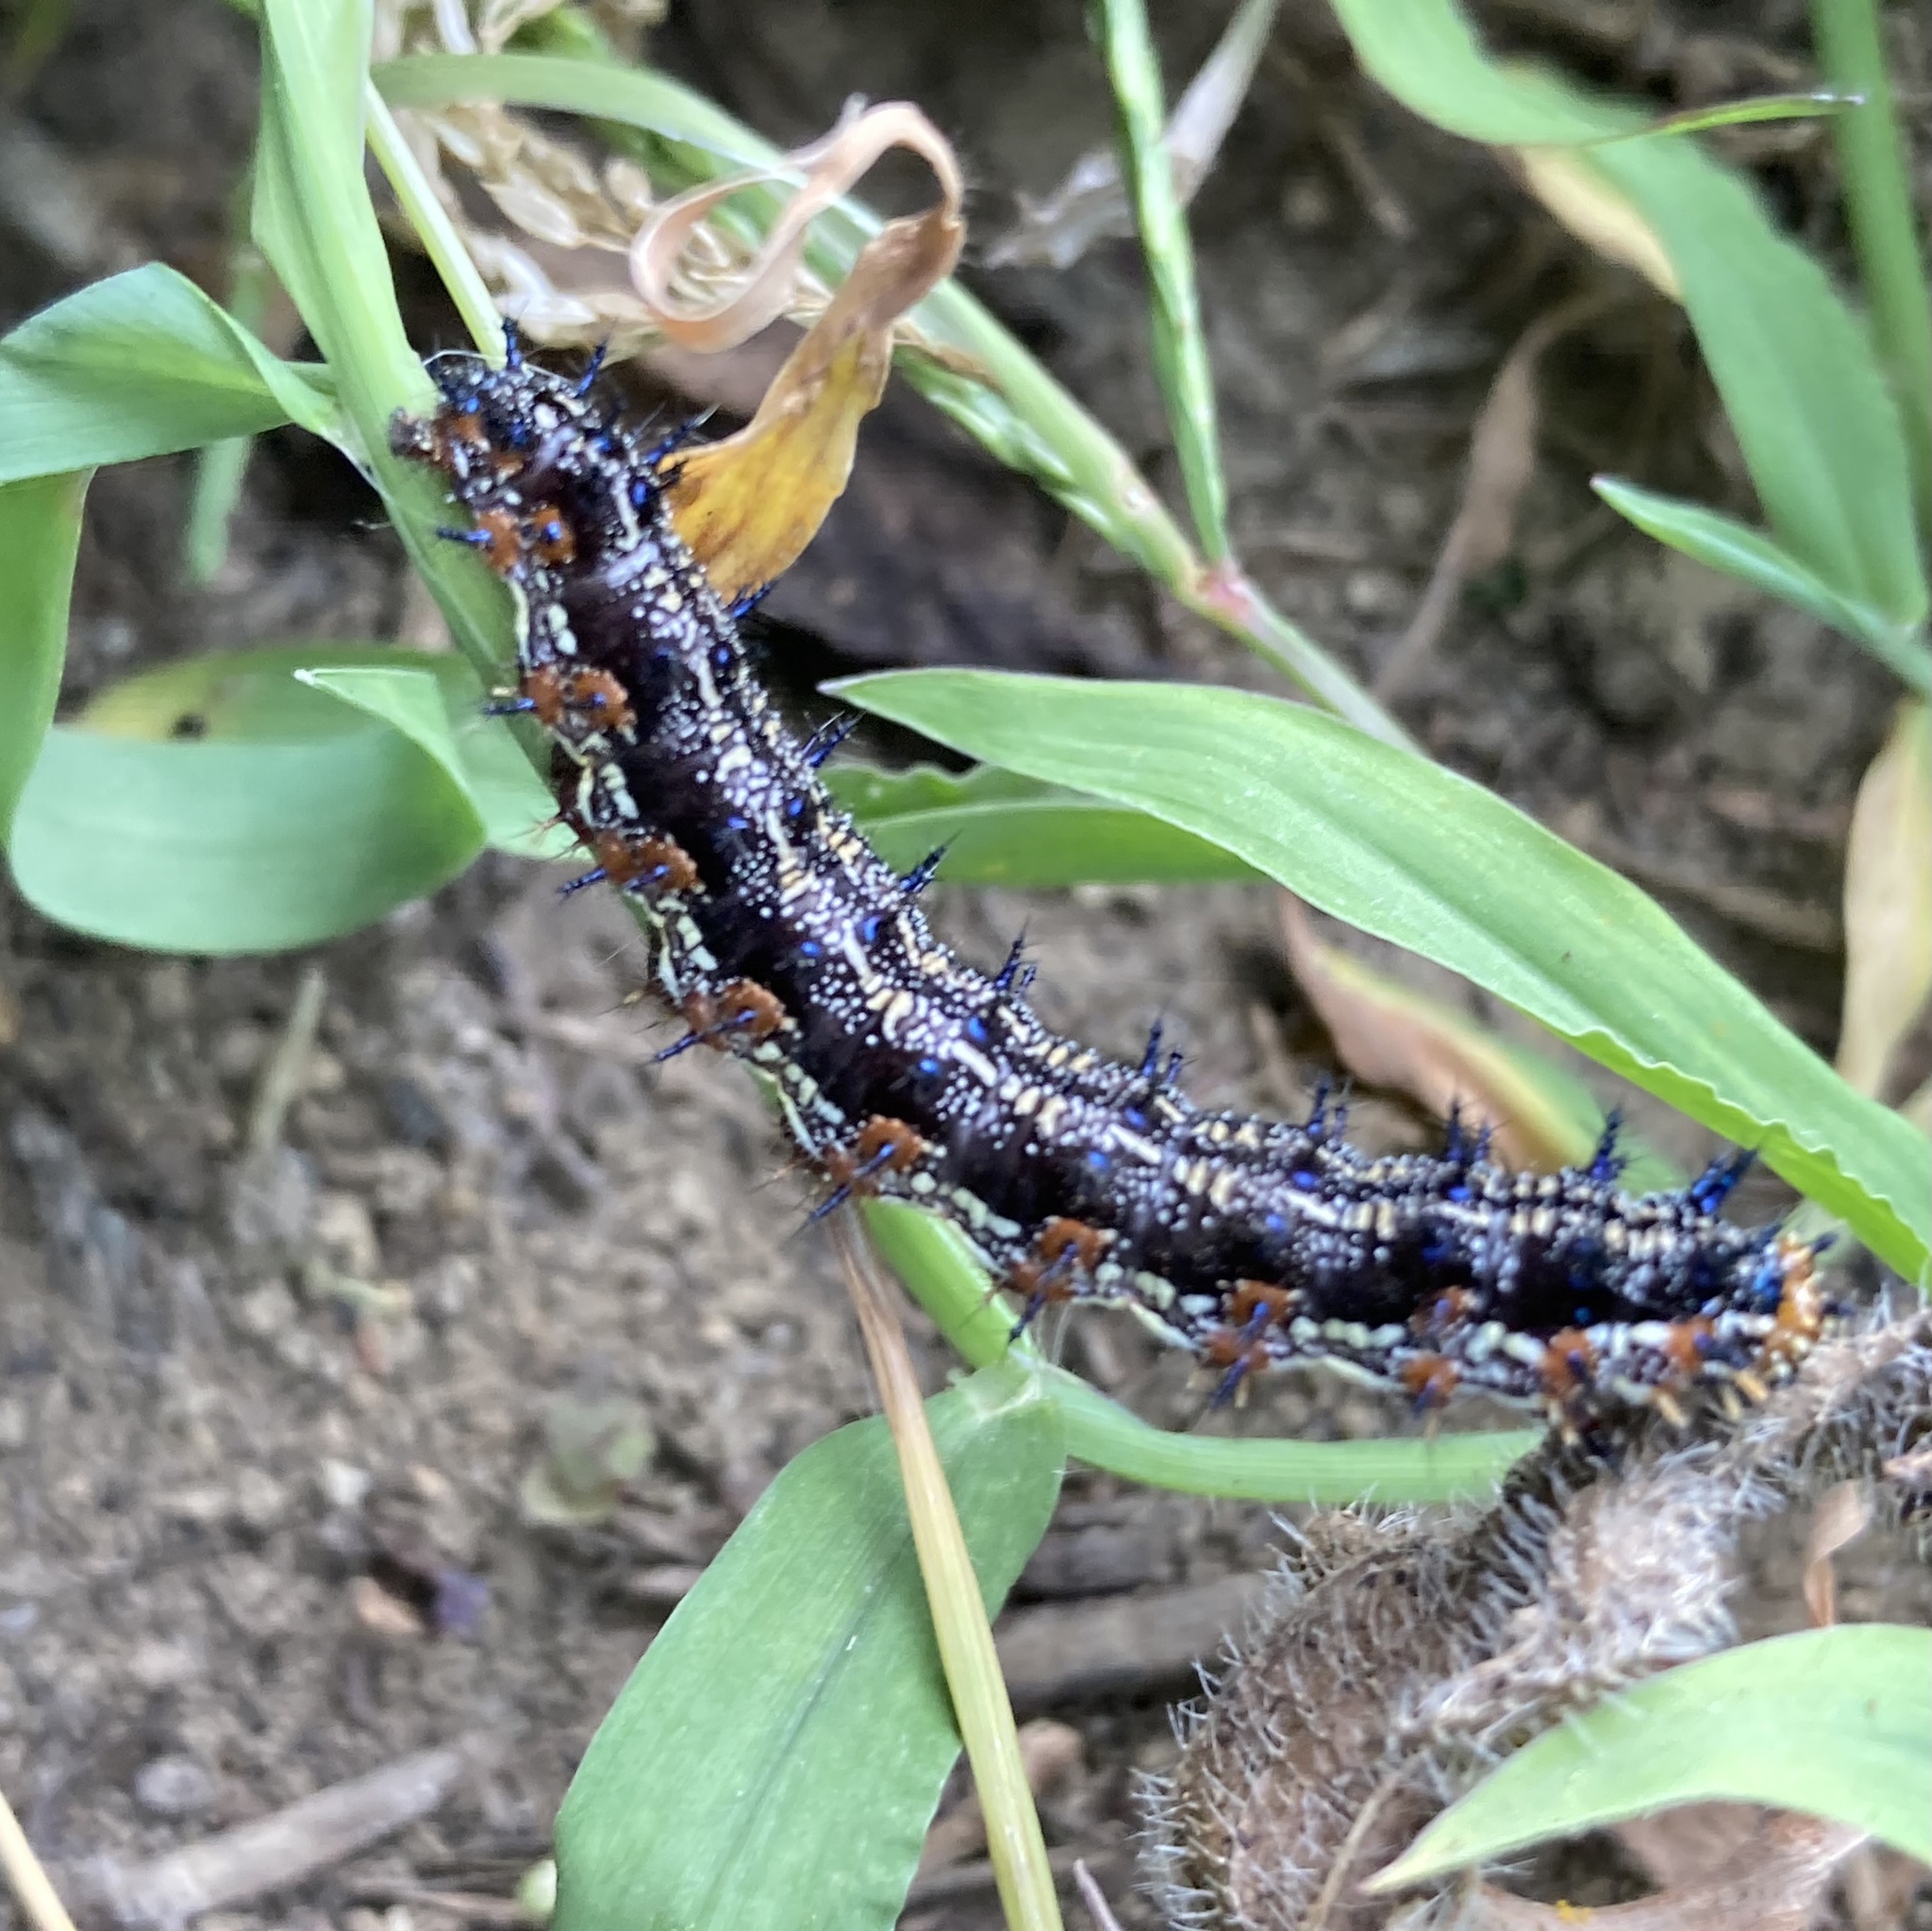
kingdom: Animalia
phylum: Arthropoda
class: Insecta
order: Lepidoptera
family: Nymphalidae
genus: Junonia
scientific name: Junonia coenia
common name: Common buckeye
